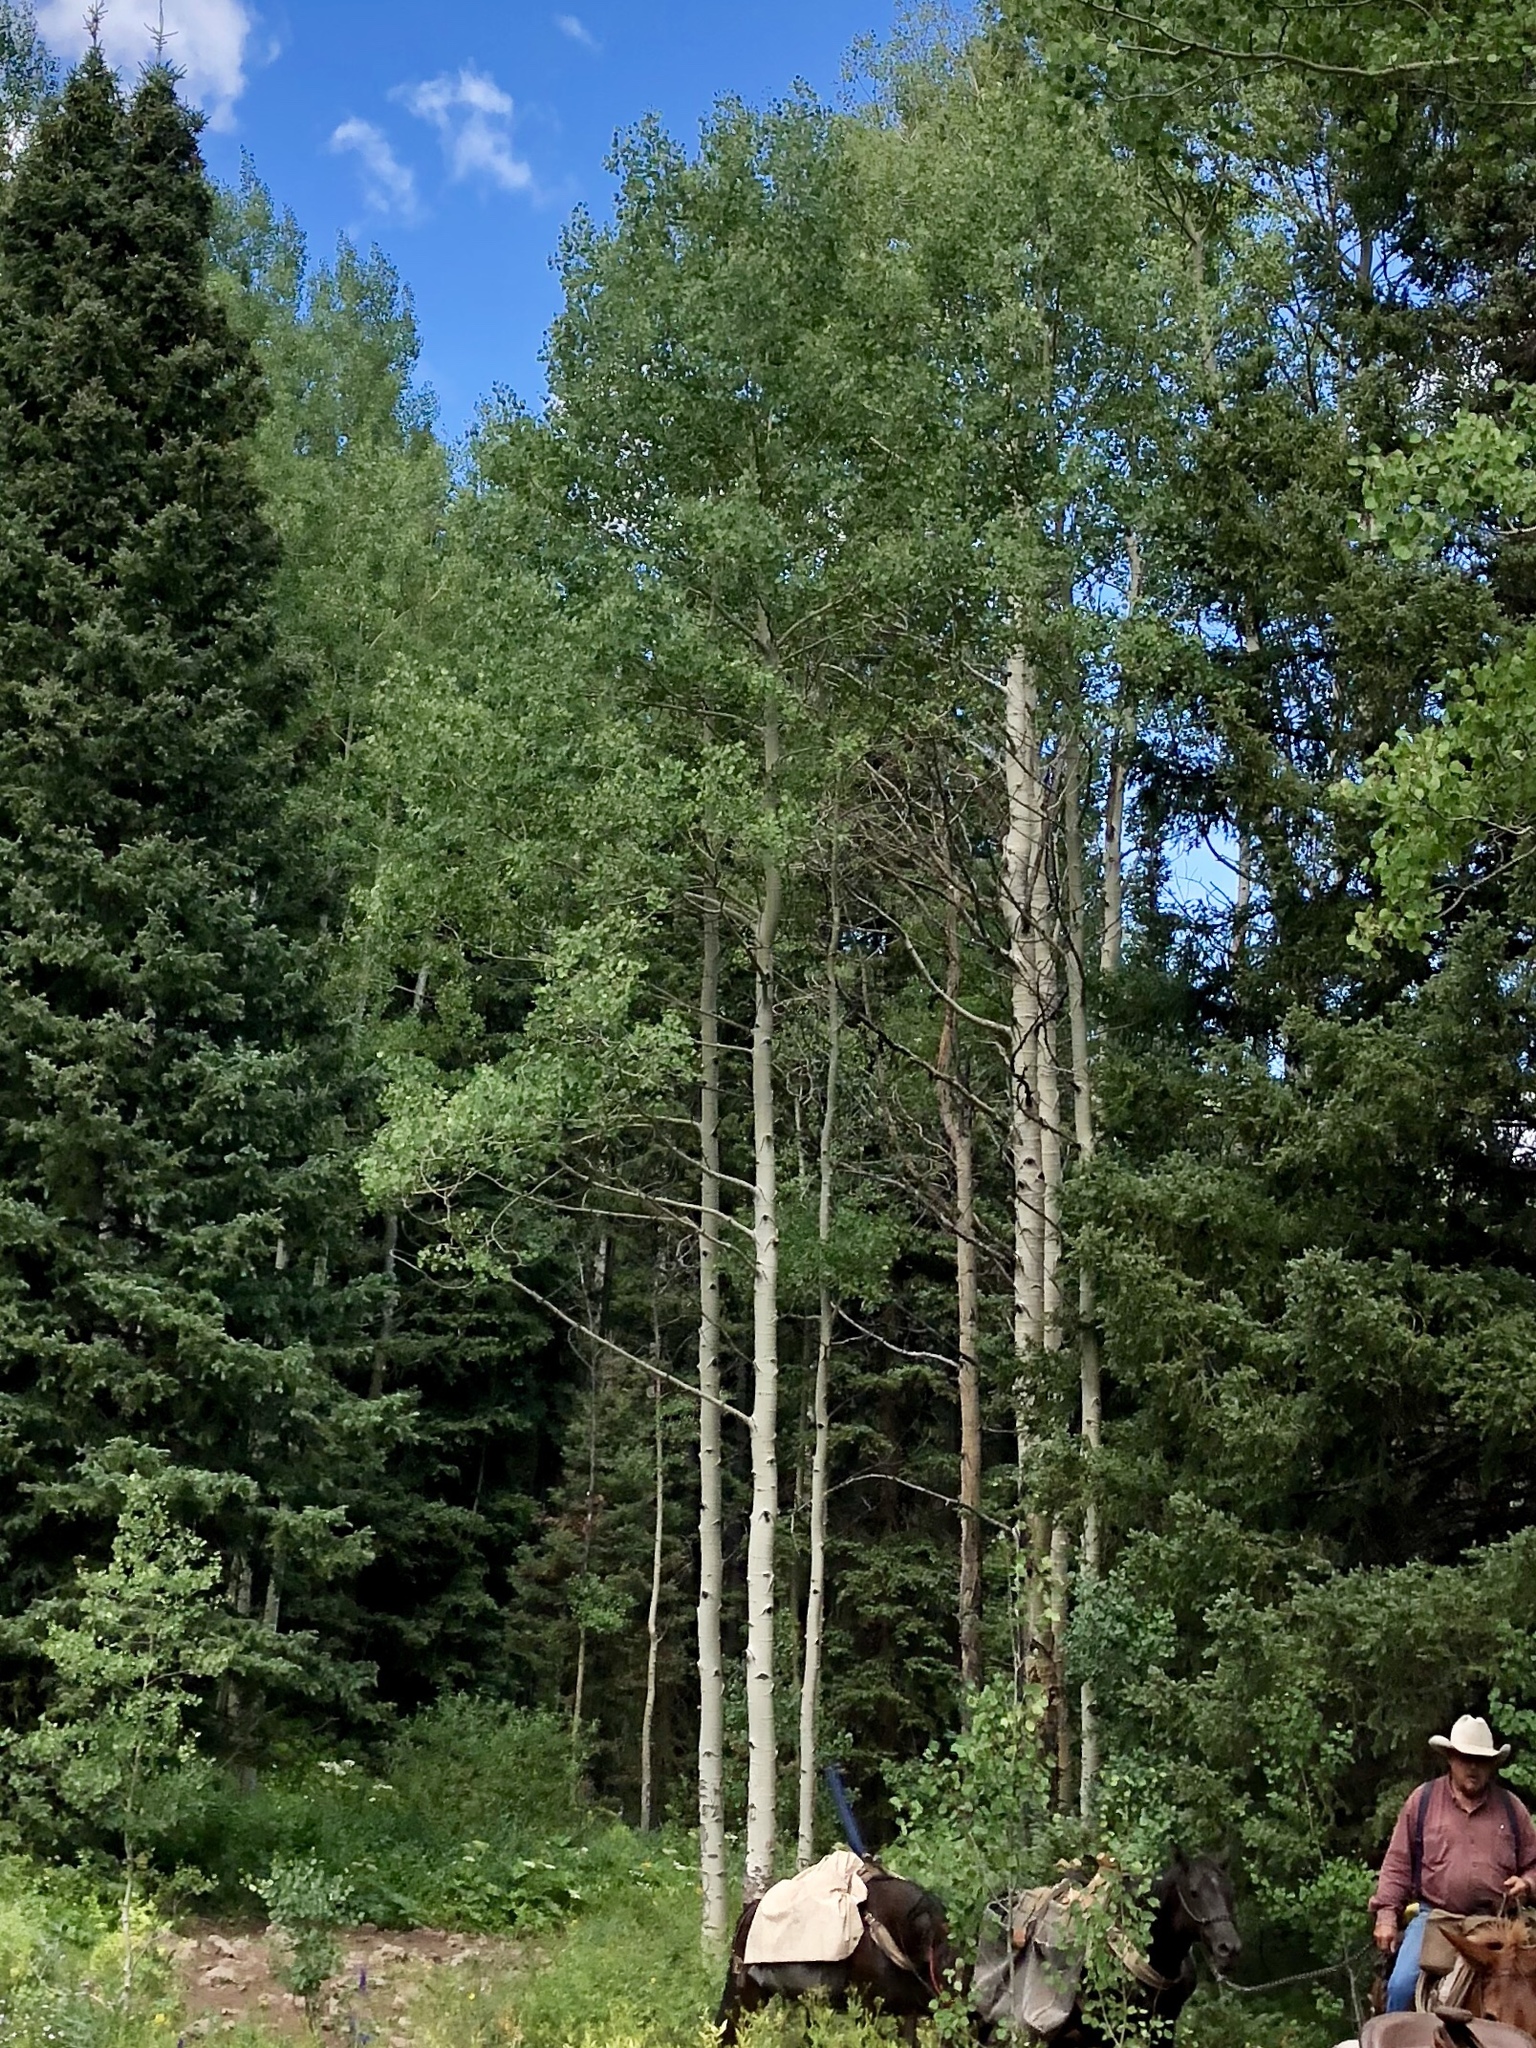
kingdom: Plantae
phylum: Tracheophyta
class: Magnoliopsida
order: Malpighiales
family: Salicaceae
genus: Populus
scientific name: Populus tremuloides
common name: Quaking aspen
